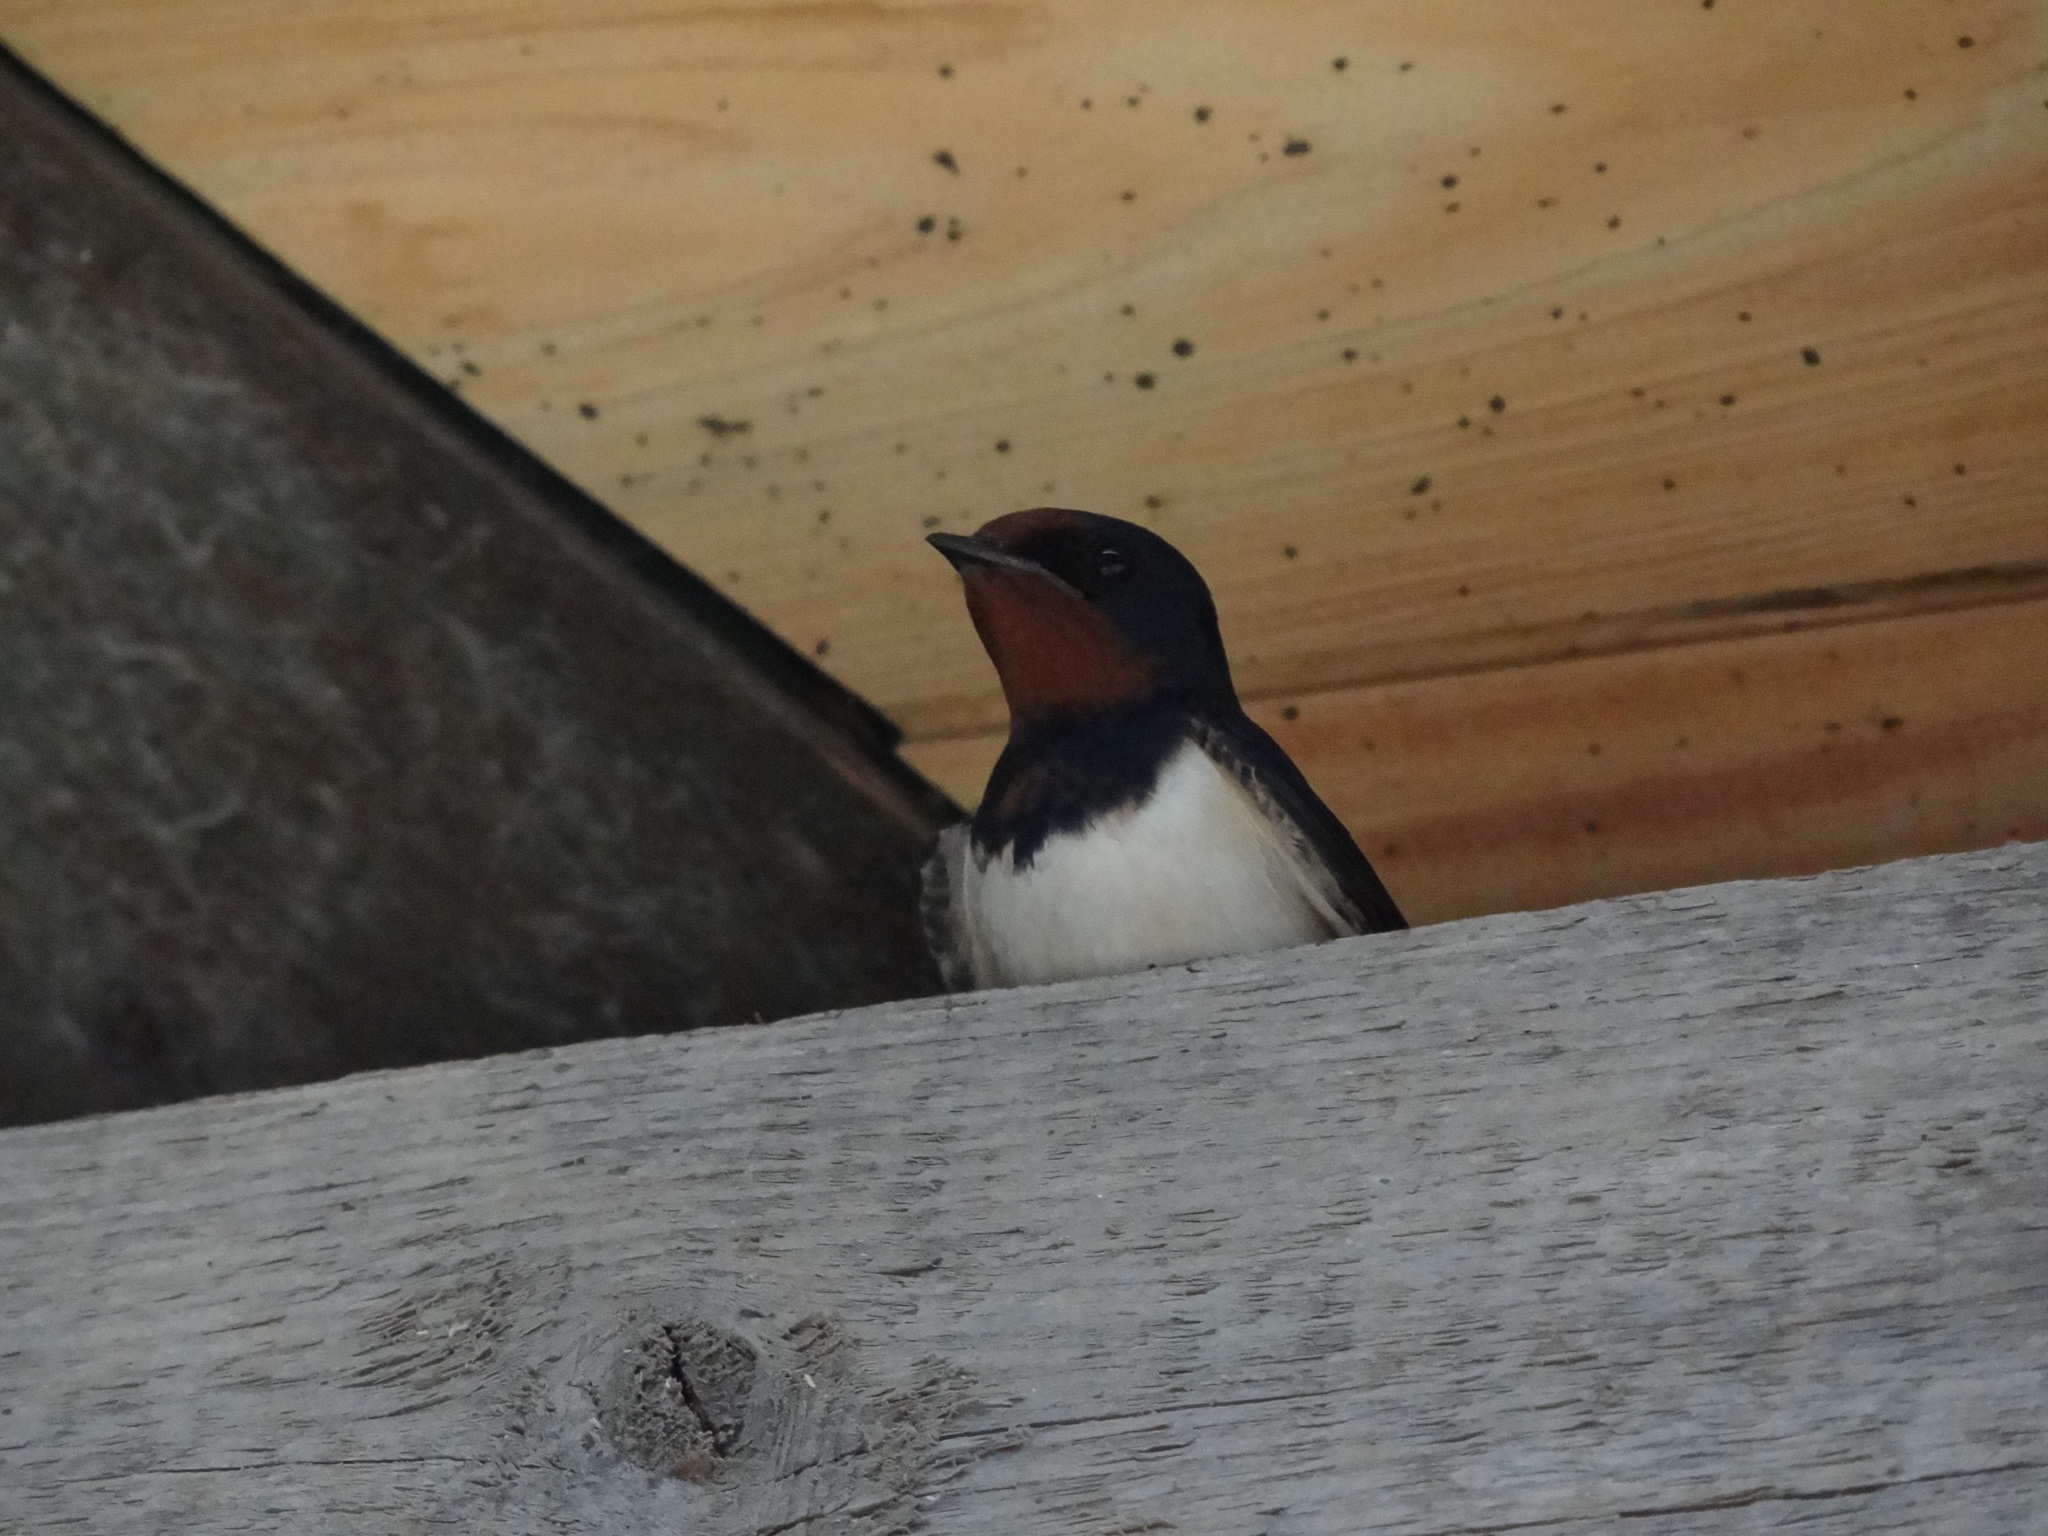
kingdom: Animalia
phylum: Chordata
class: Aves
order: Passeriformes
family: Hirundinidae
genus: Hirundo
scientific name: Hirundo rustica
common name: Barn swallow
